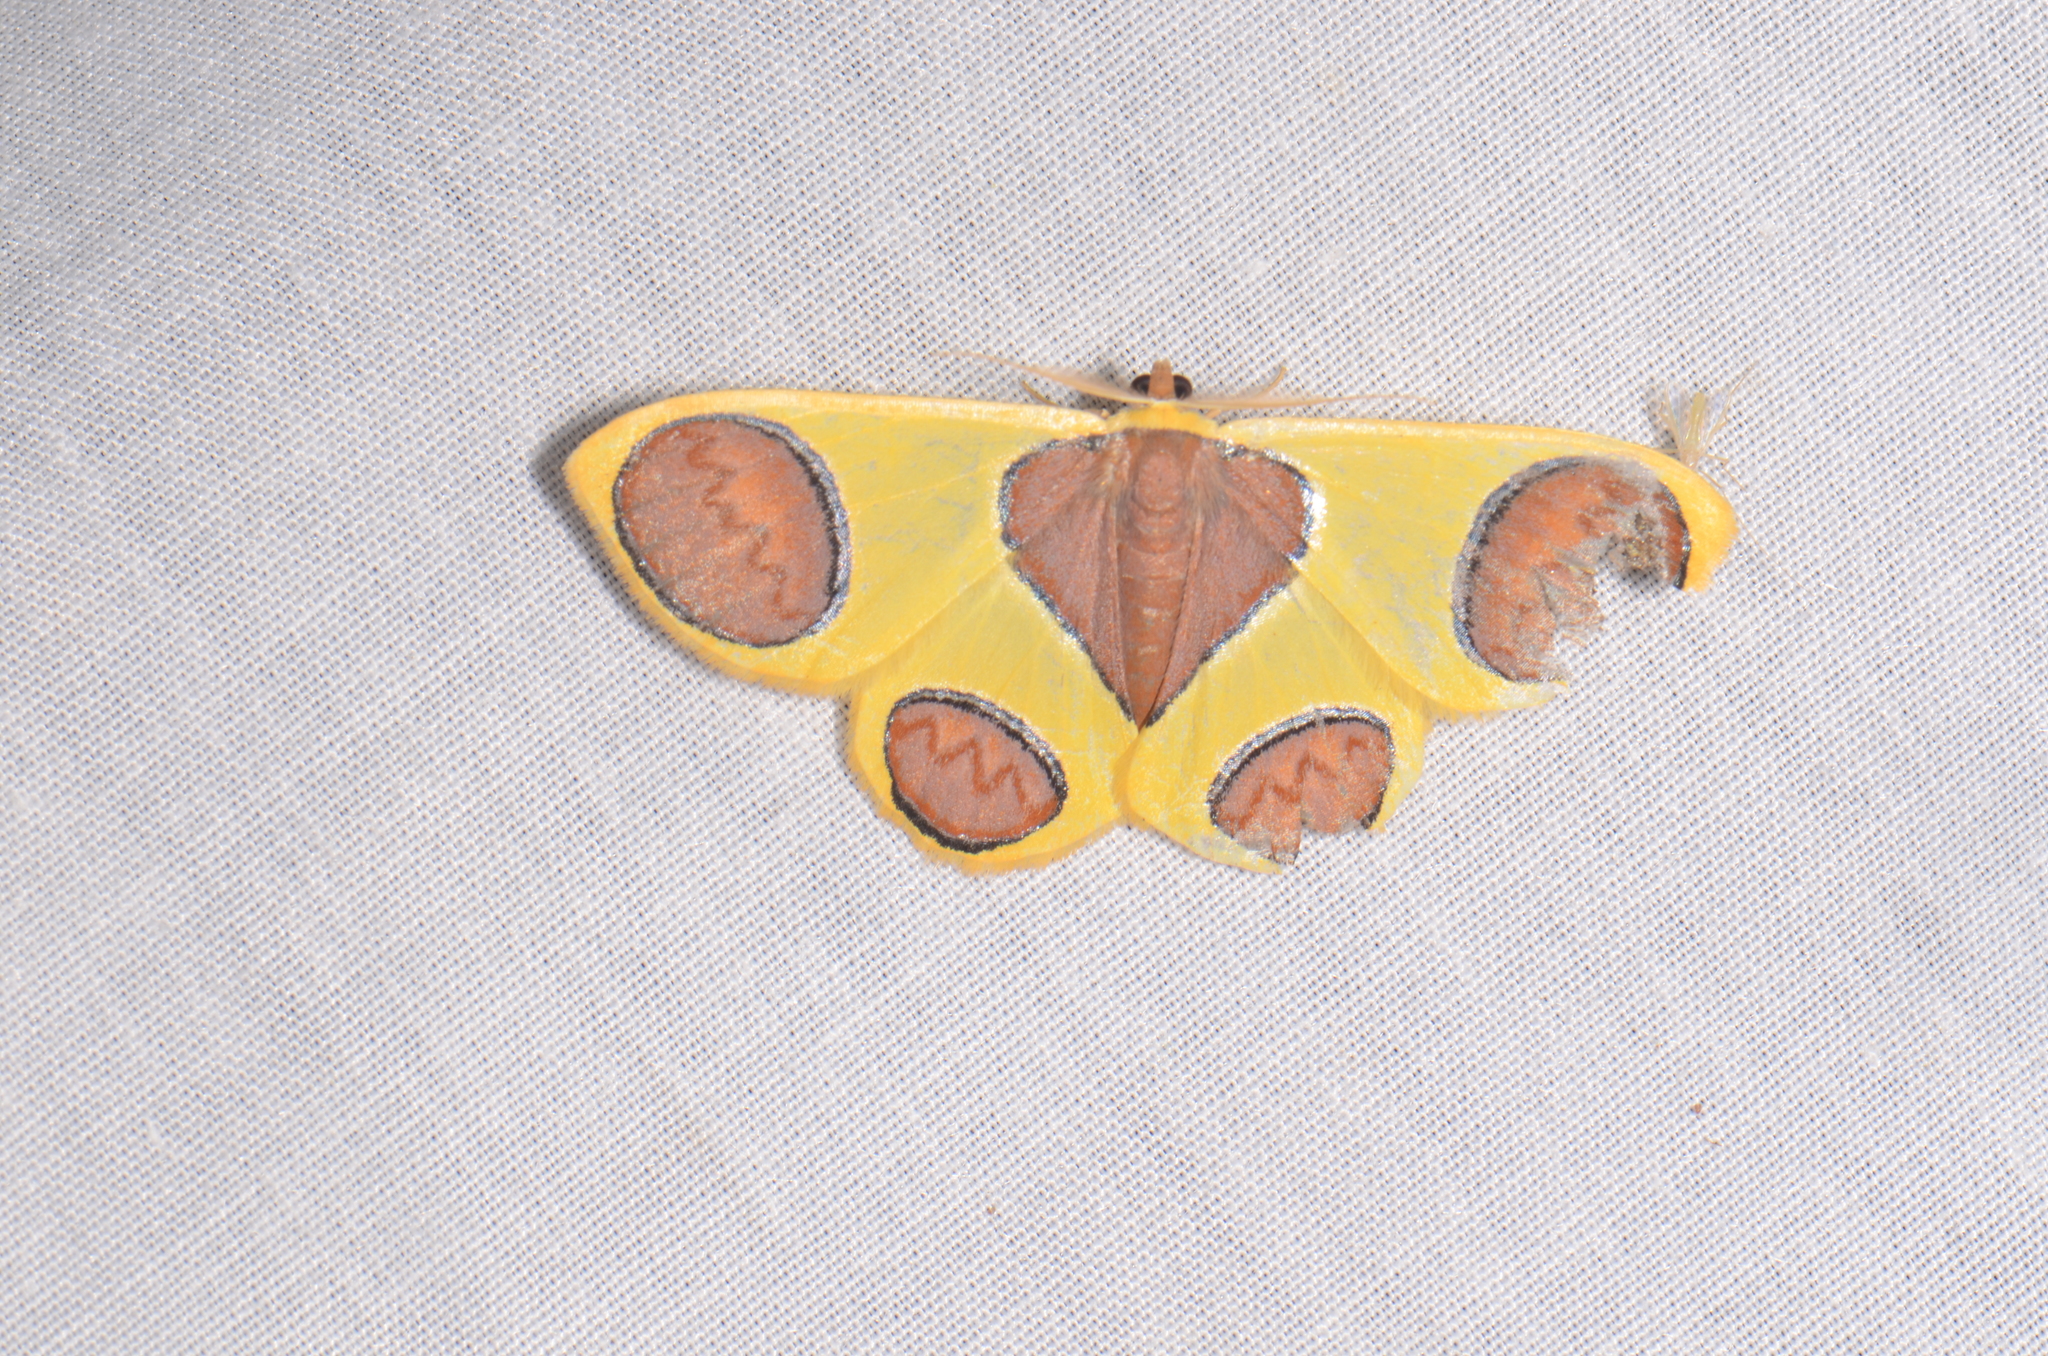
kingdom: Animalia
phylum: Arthropoda
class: Insecta
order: Lepidoptera
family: Geometridae
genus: Plutodes
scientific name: Plutodes flavescens
